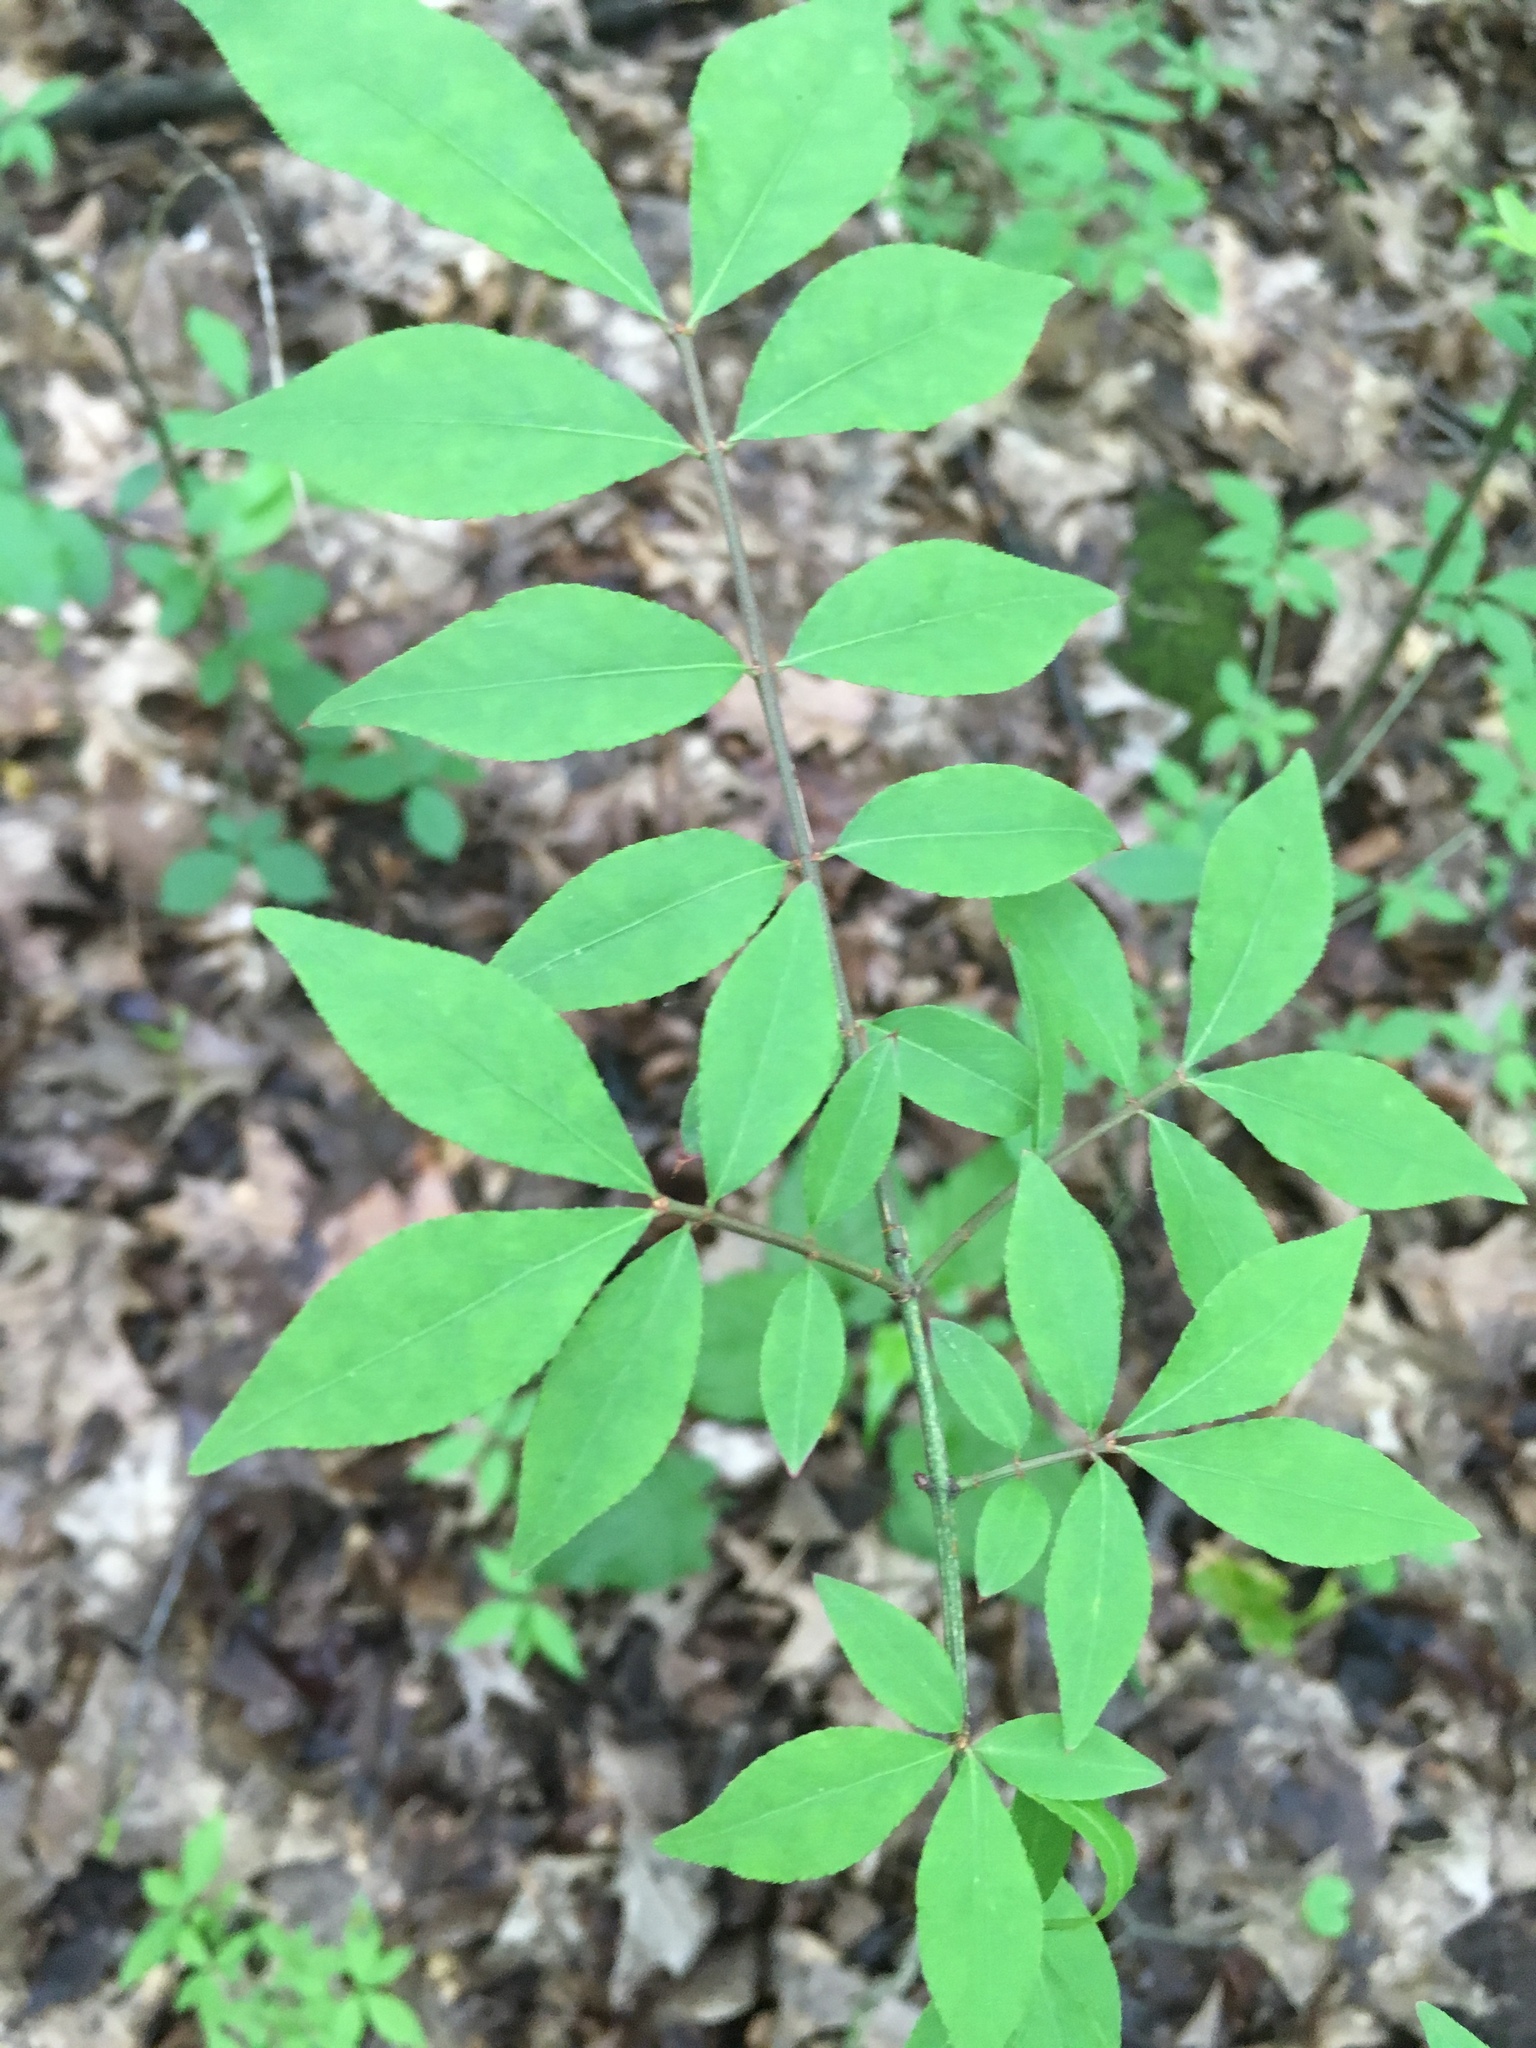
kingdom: Plantae
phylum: Tracheophyta
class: Magnoliopsida
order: Celastrales
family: Celastraceae
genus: Euonymus
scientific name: Euonymus alatus
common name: Winged euonymus
